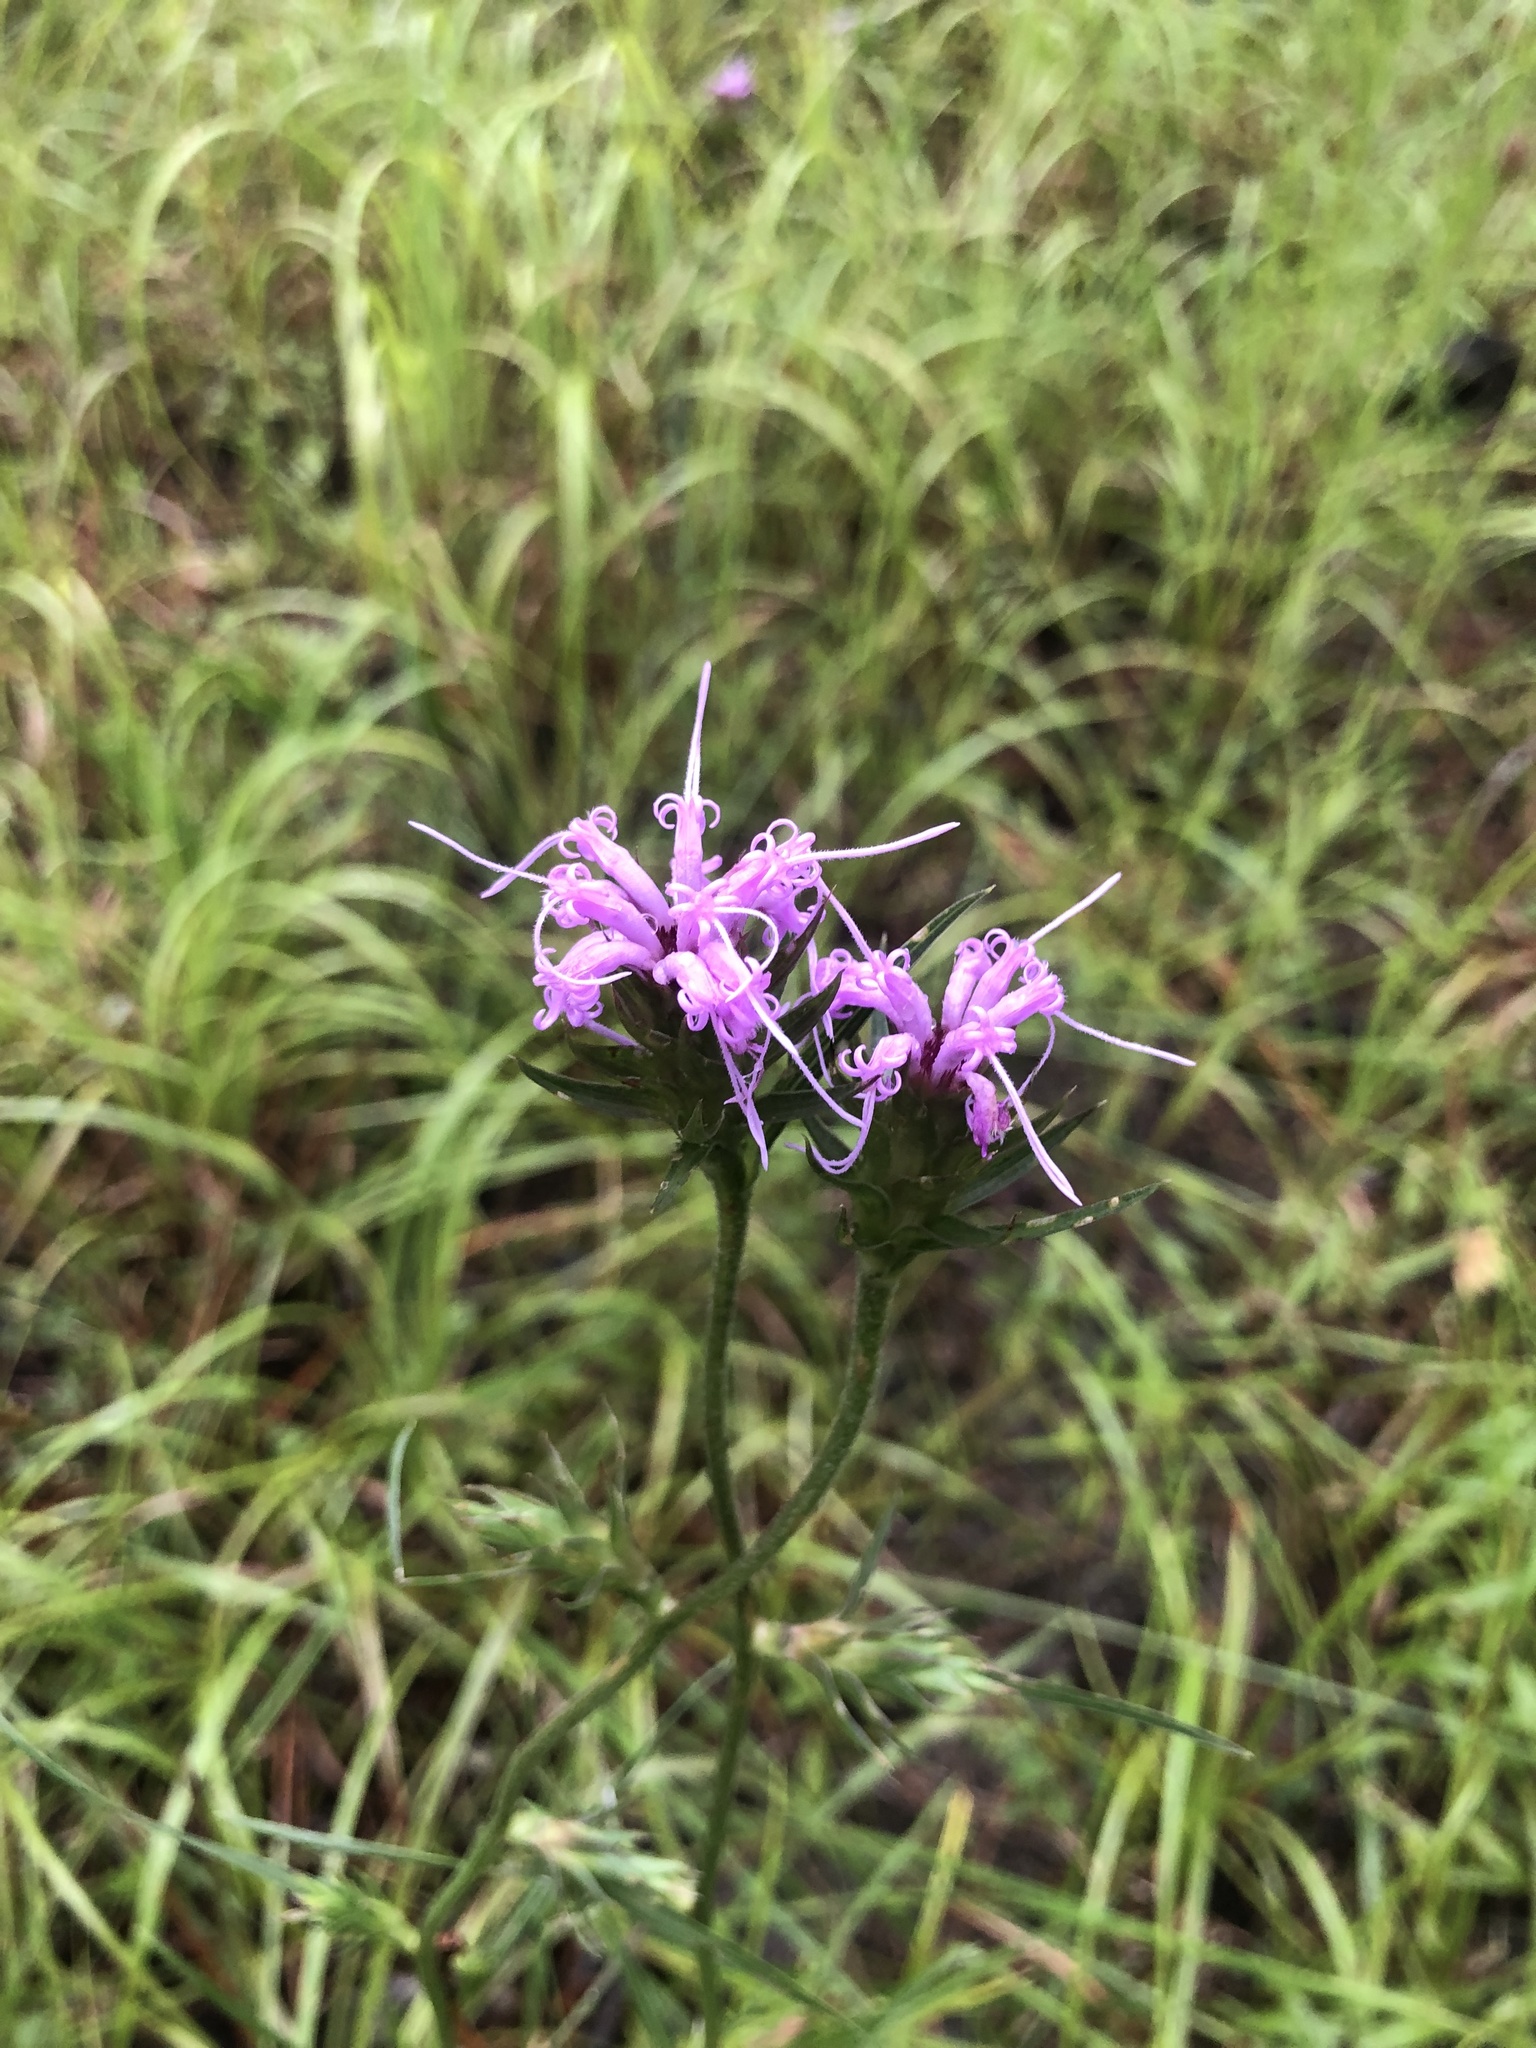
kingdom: Plantae
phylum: Tracheophyta
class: Magnoliopsida
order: Asterales
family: Asteraceae
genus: Liatris
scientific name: Liatris squarrosa
